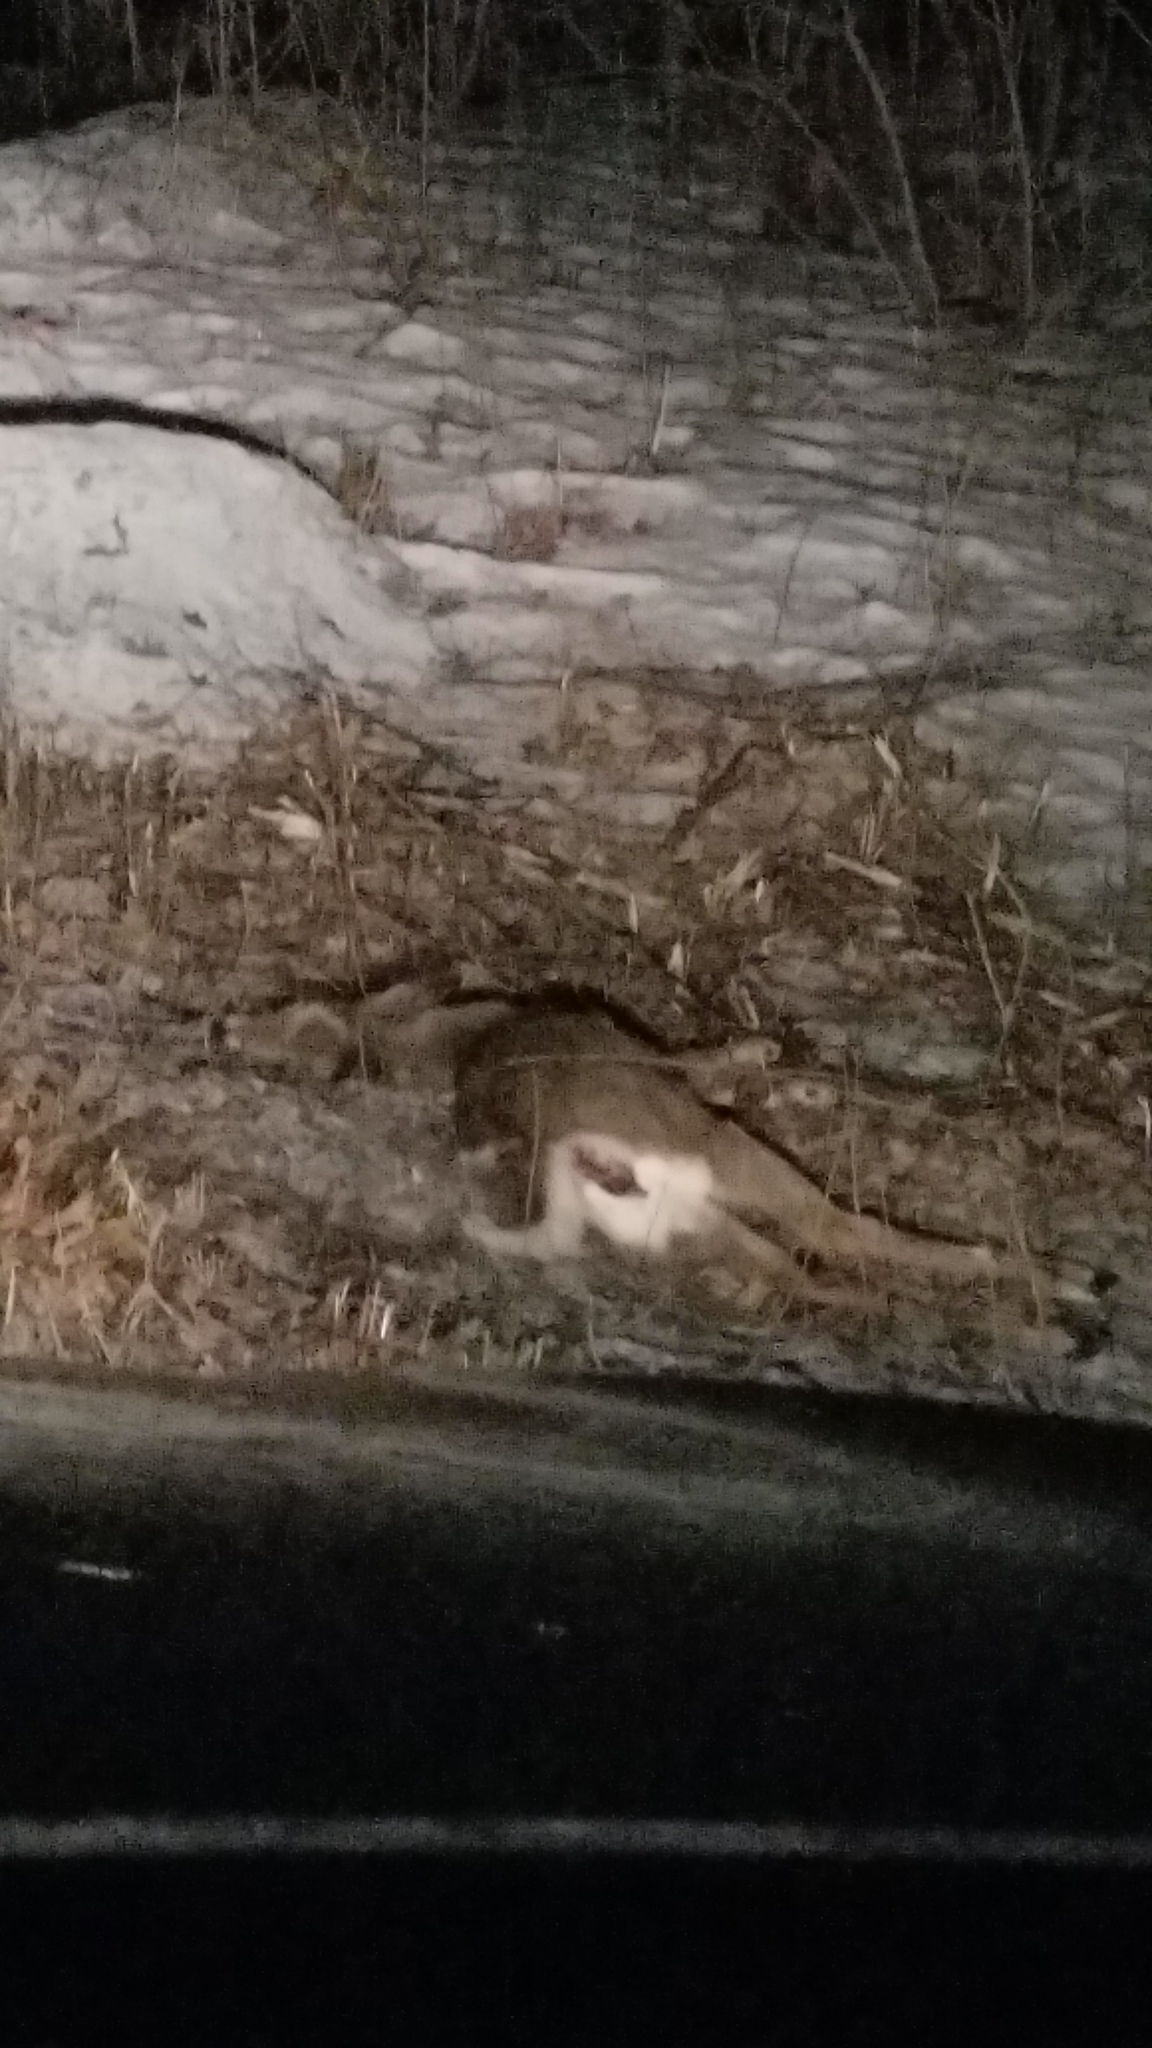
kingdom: Animalia
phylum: Chordata
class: Mammalia
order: Artiodactyla
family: Cervidae
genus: Odocoileus
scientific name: Odocoileus virginianus
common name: White-tailed deer
